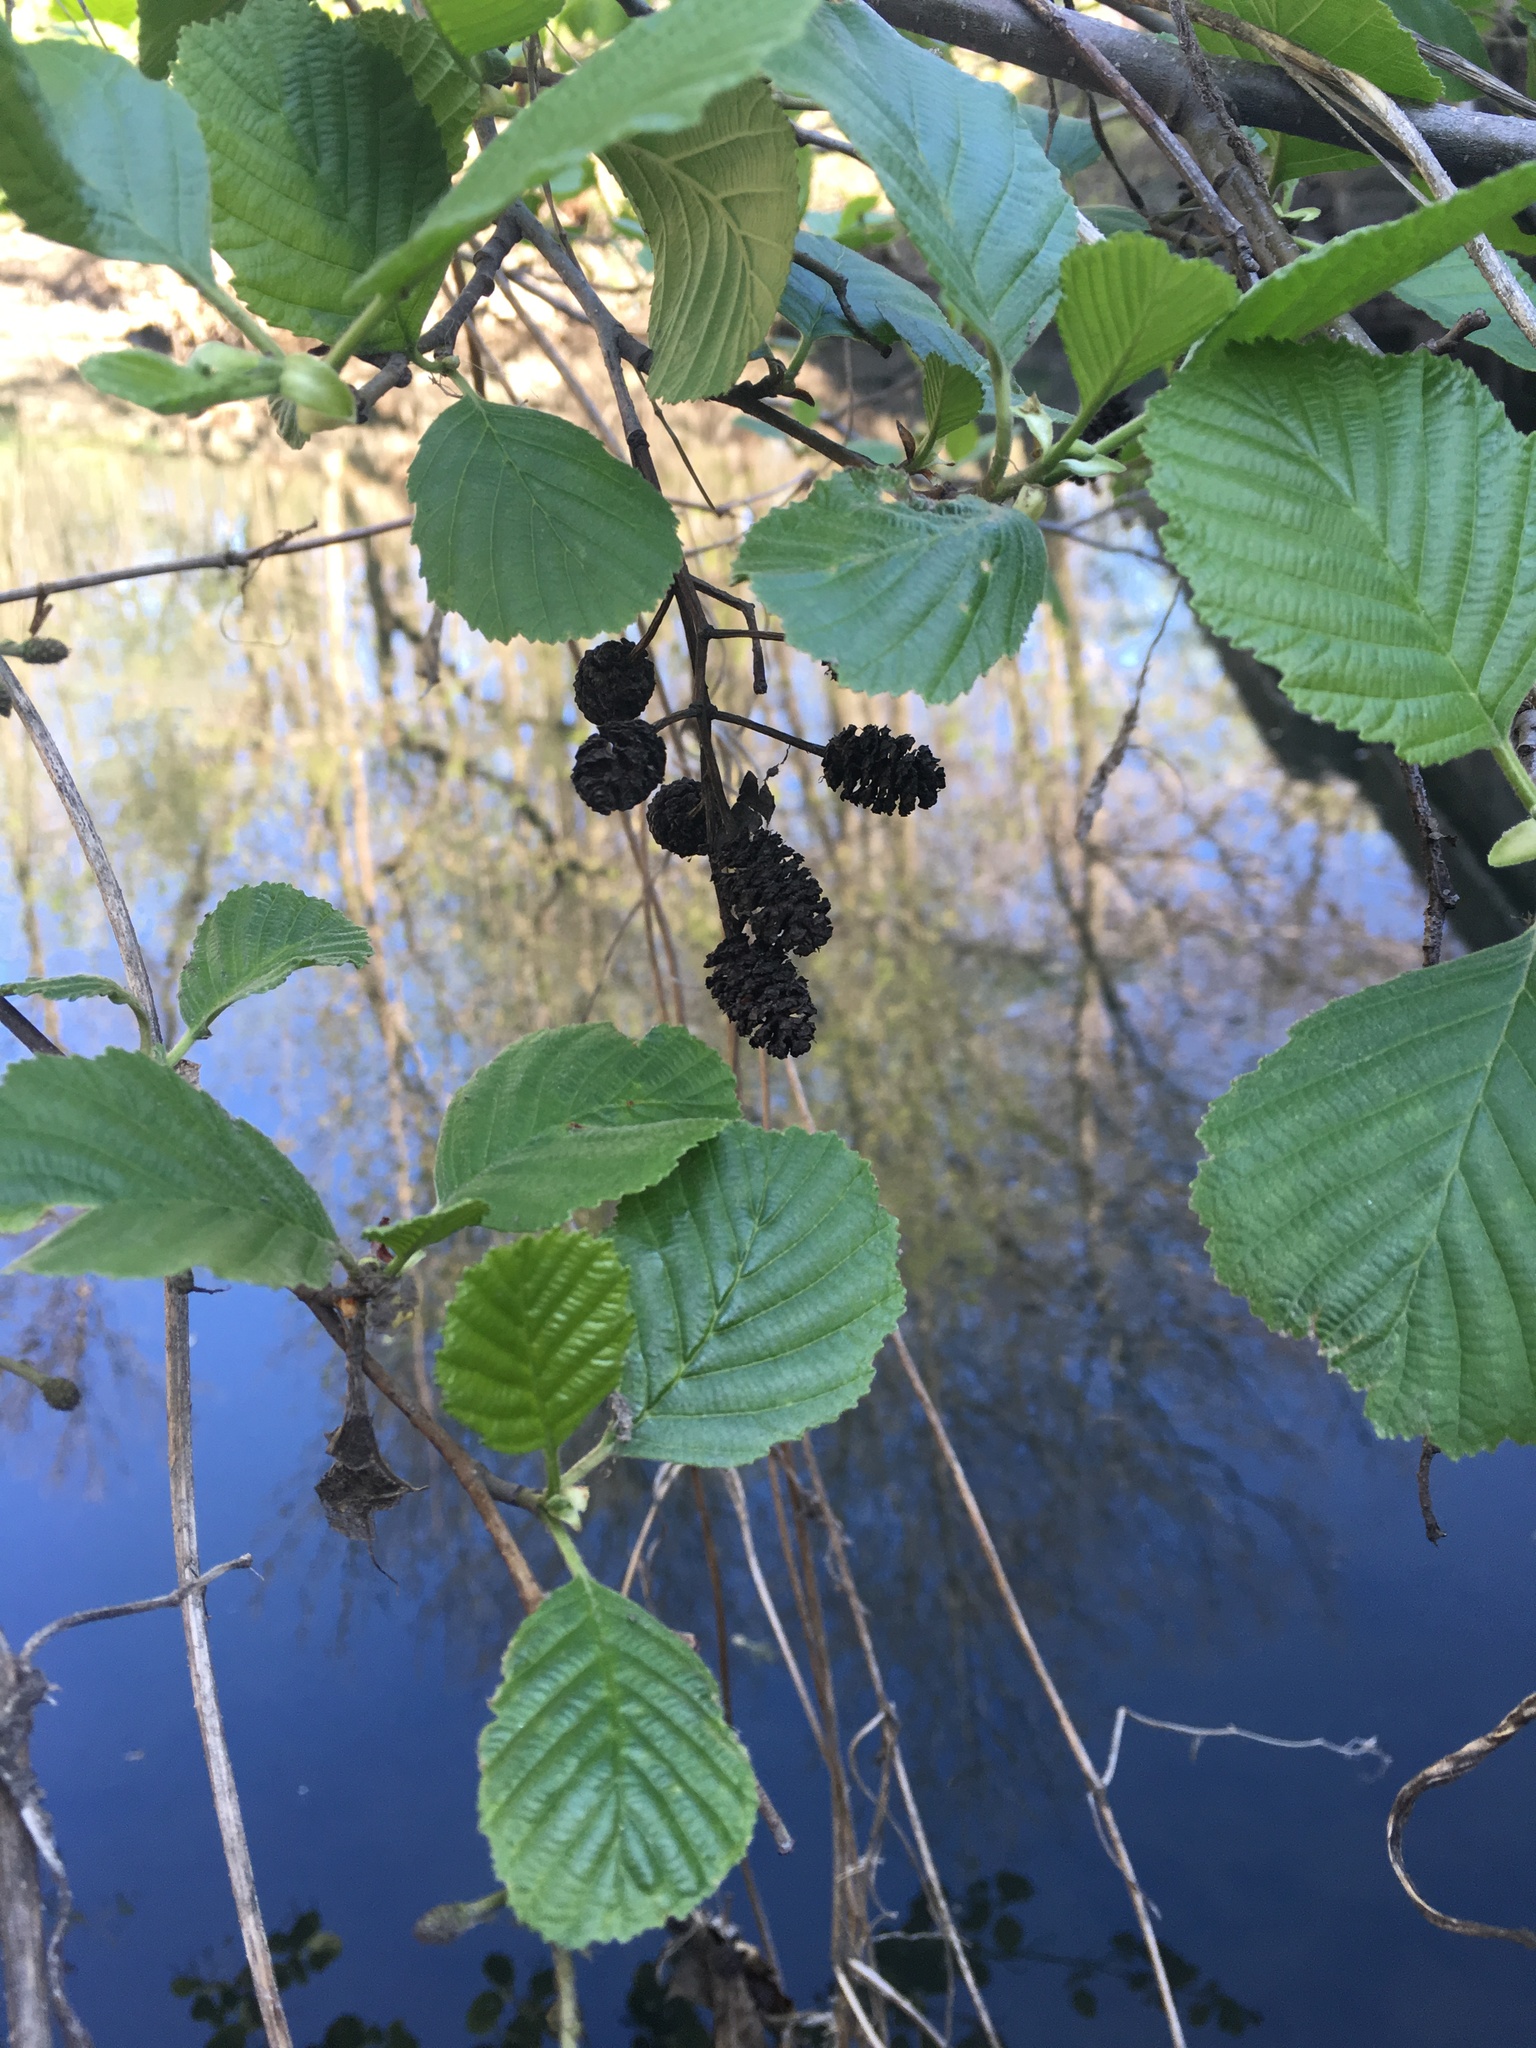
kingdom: Plantae
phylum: Tracheophyta
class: Magnoliopsida
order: Fagales
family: Betulaceae
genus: Alnus
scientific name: Alnus glutinosa
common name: Black alder
